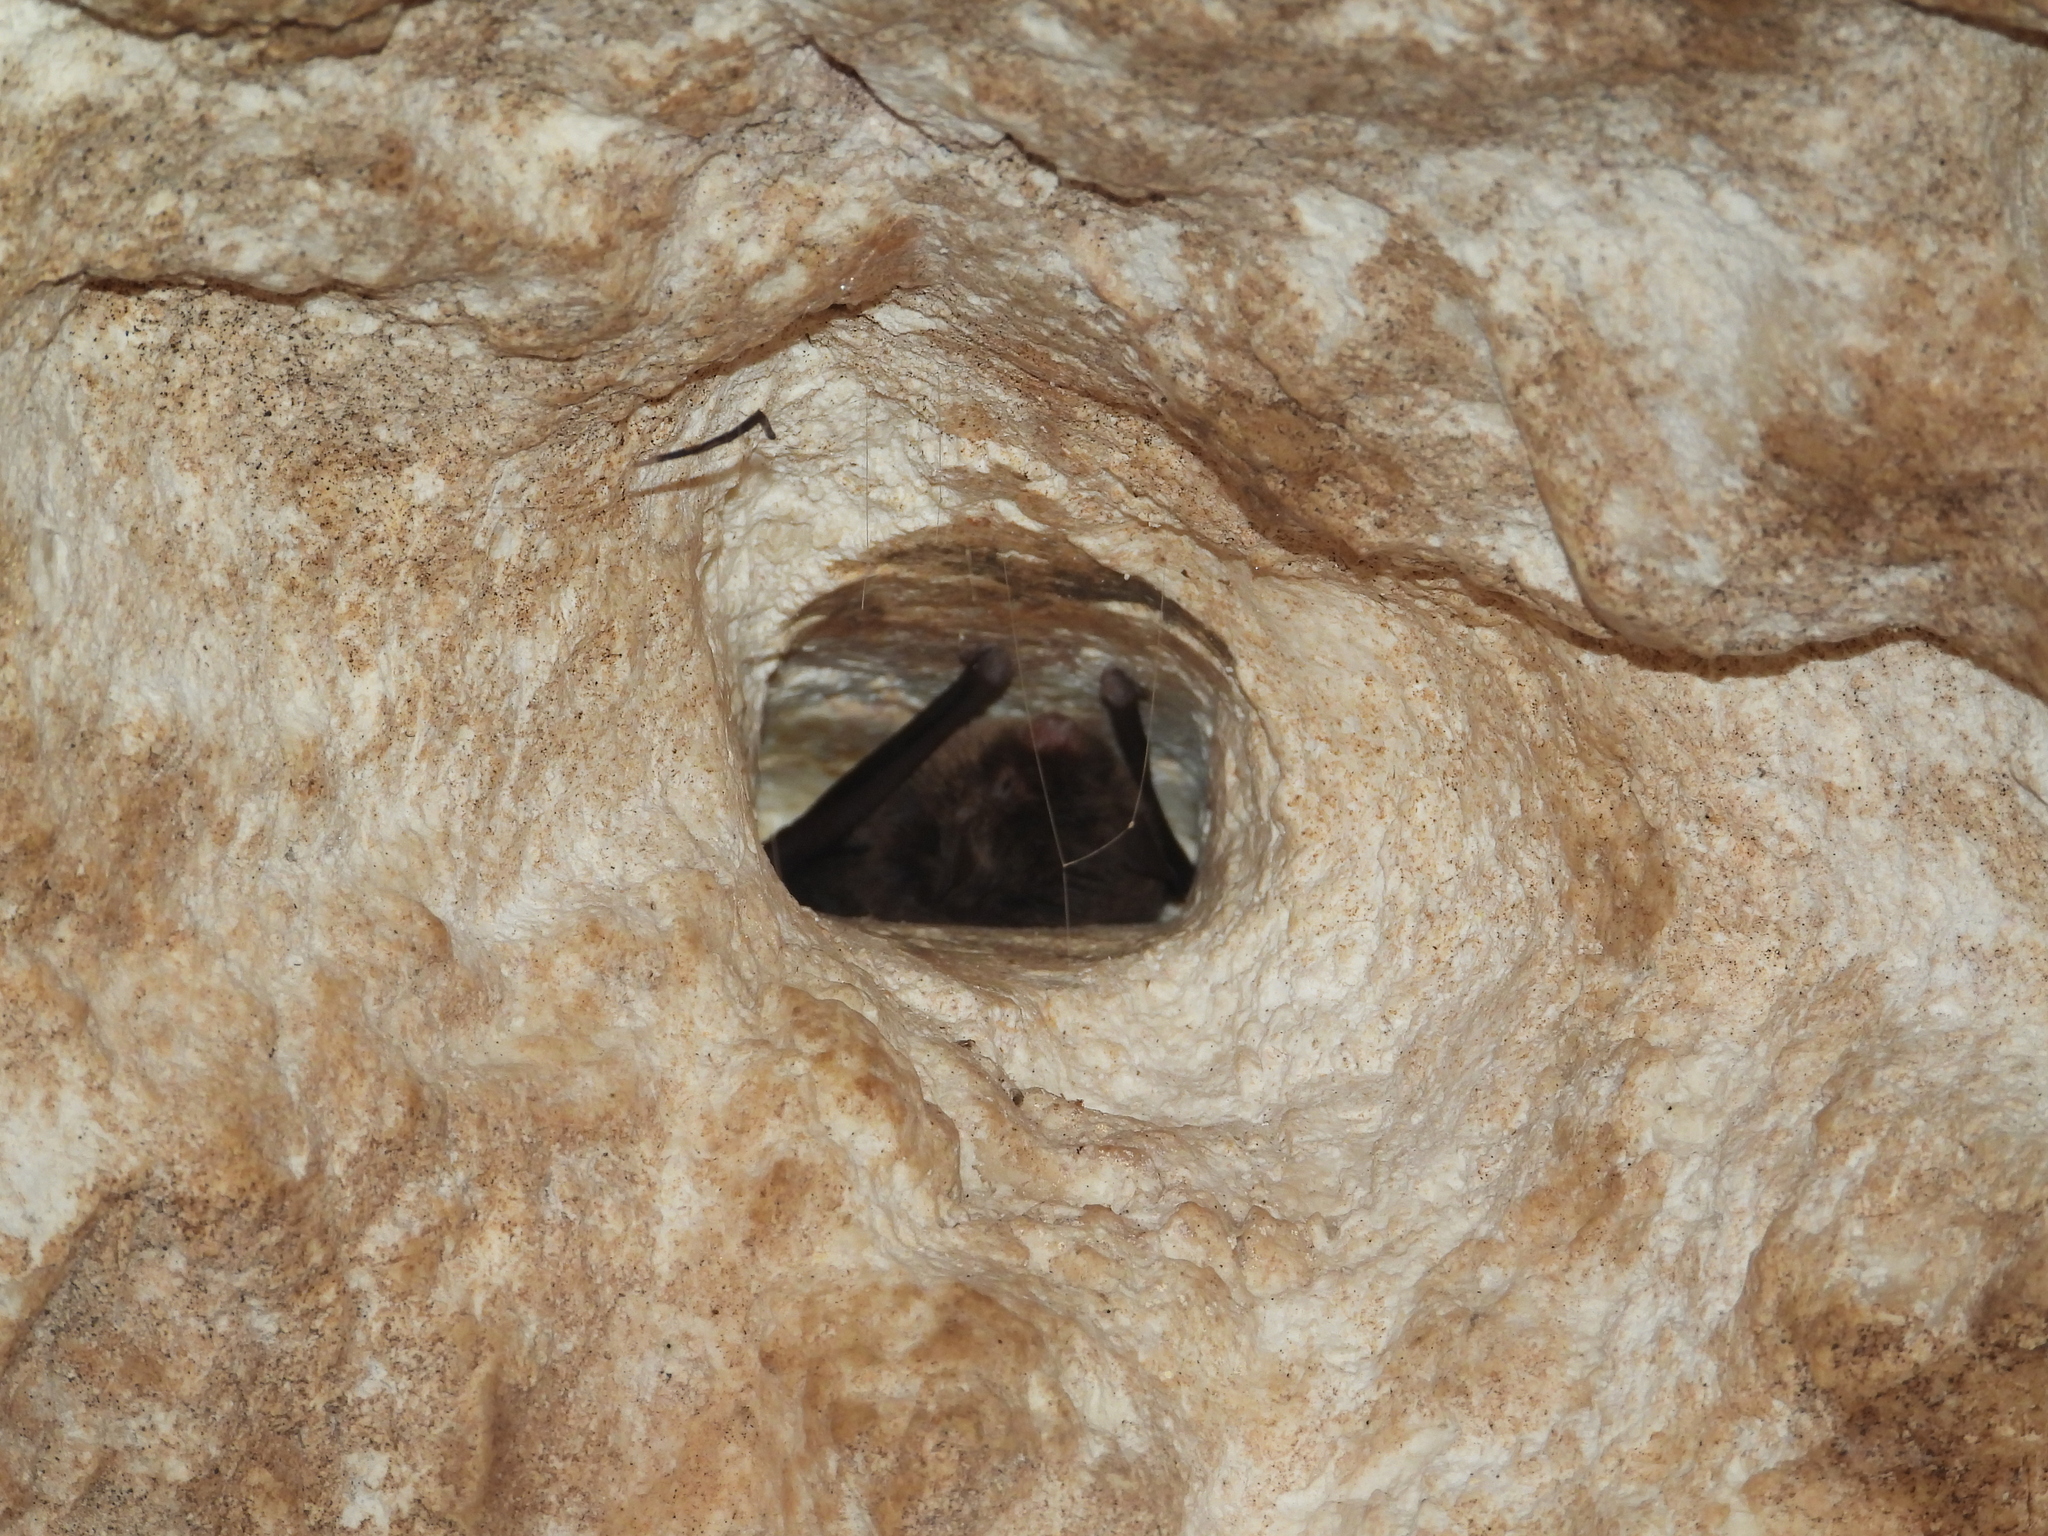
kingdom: Animalia
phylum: Chordata
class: Mammalia
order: Chiroptera
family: Vespertilionidae
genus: Myotis
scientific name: Myotis pilosatibialis
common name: Northern hairy-legged myotis
